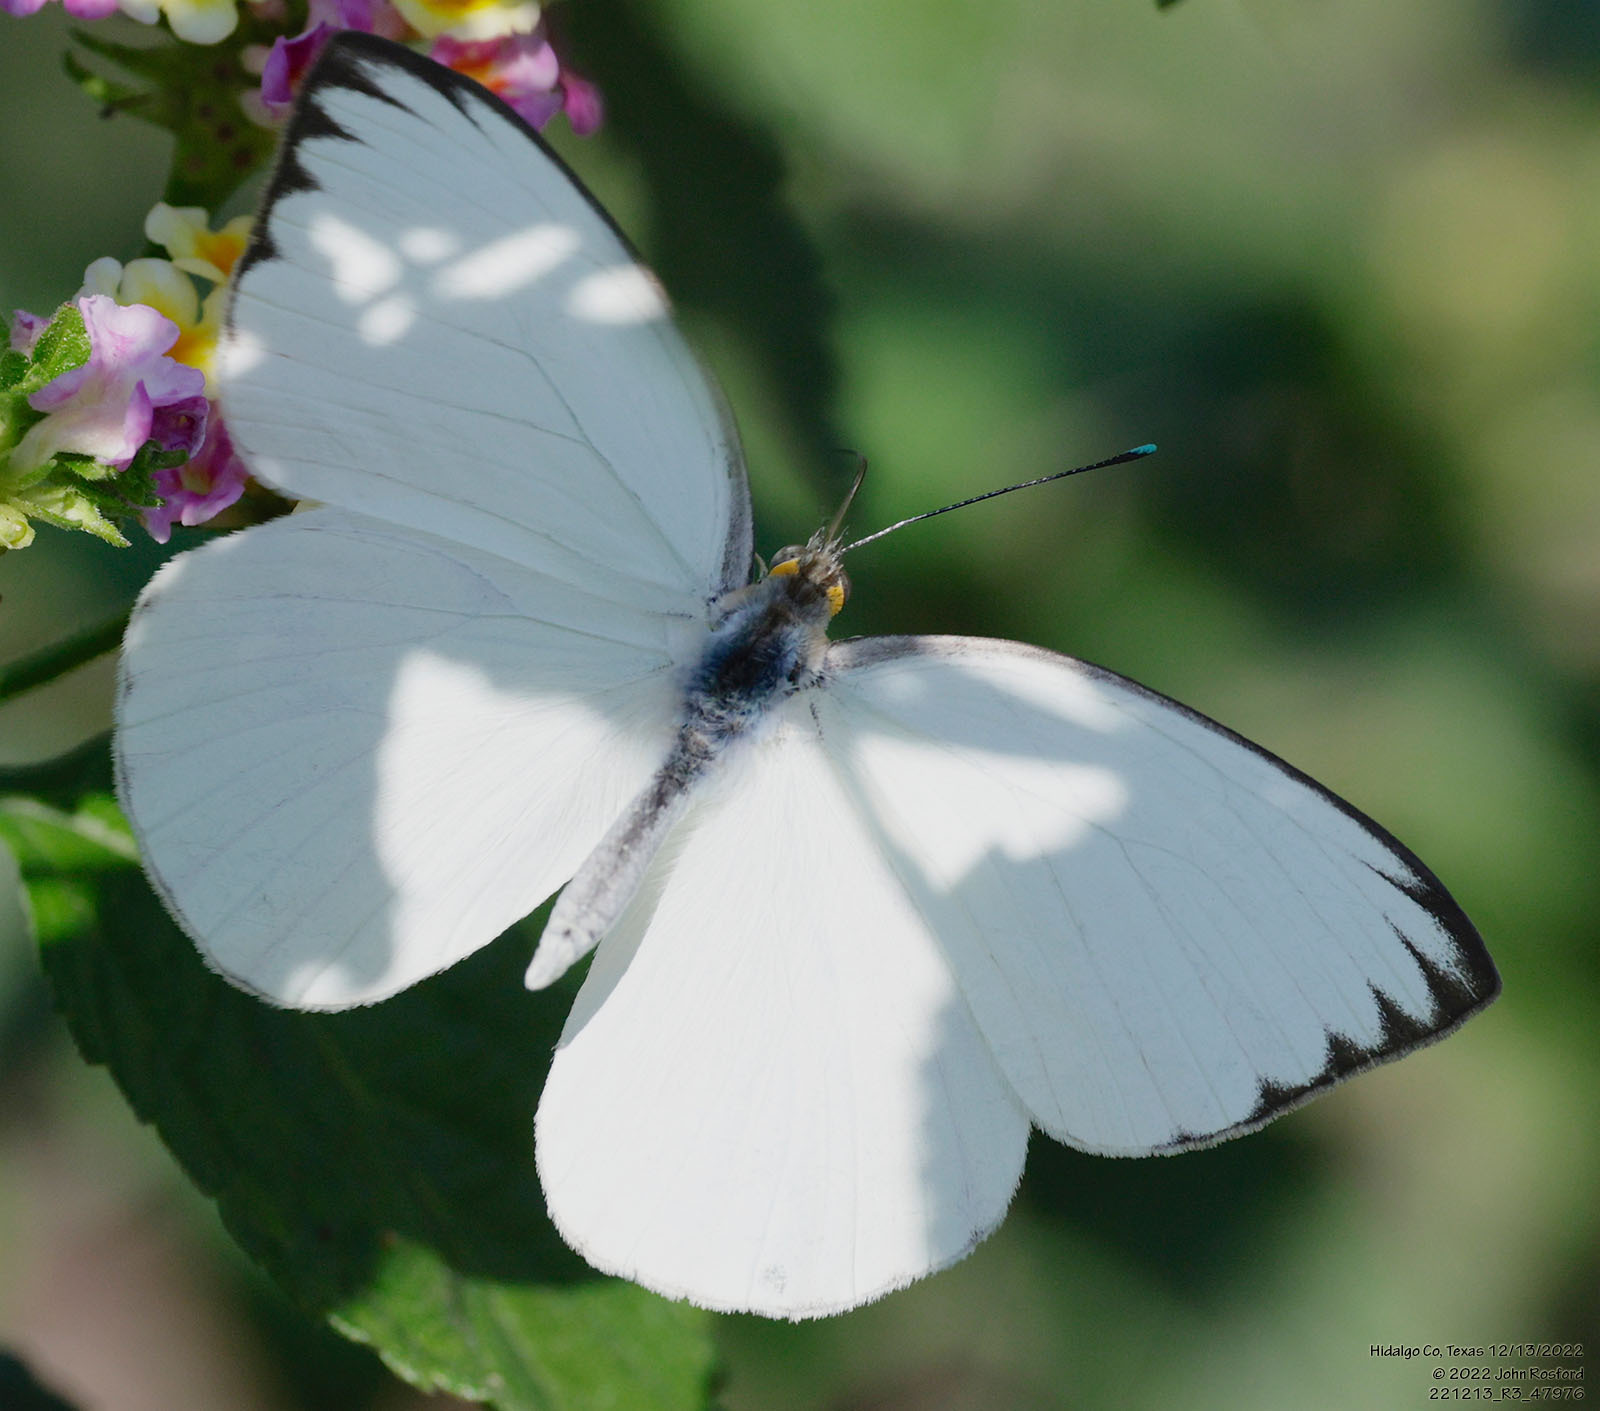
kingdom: Animalia
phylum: Arthropoda
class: Insecta
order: Lepidoptera
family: Pieridae
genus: Ascia
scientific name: Ascia monuste
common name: Great southern white
